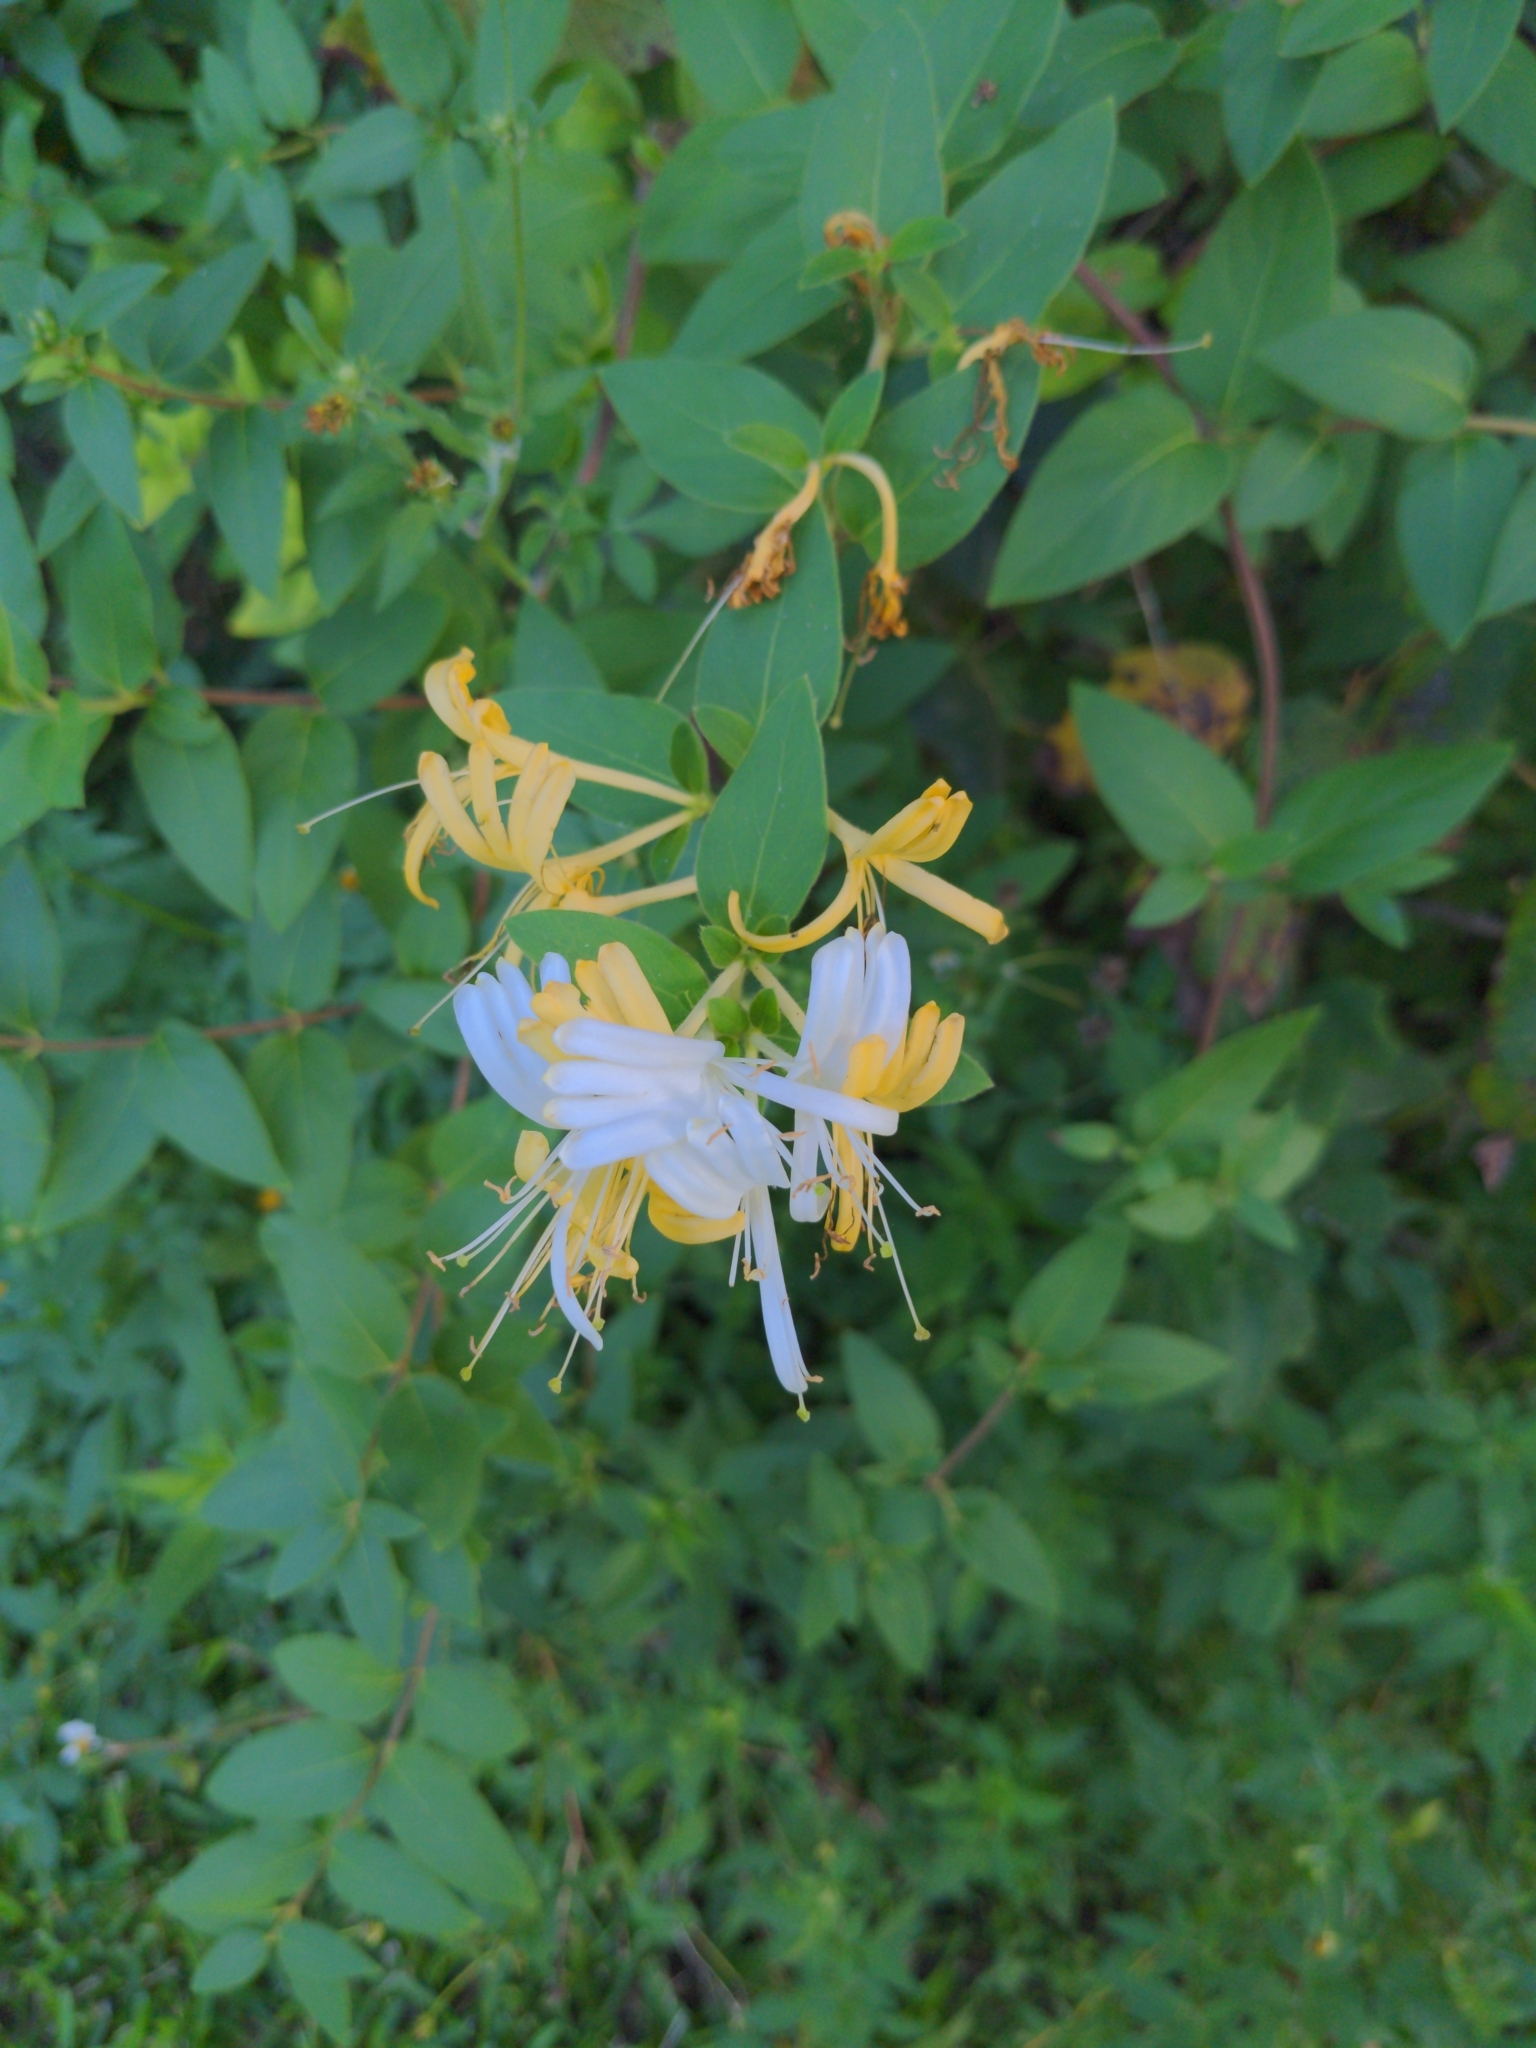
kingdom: Plantae
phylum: Tracheophyta
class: Magnoliopsida
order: Dipsacales
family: Caprifoliaceae
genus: Lonicera
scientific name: Lonicera japonica
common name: Japanese honeysuckle
